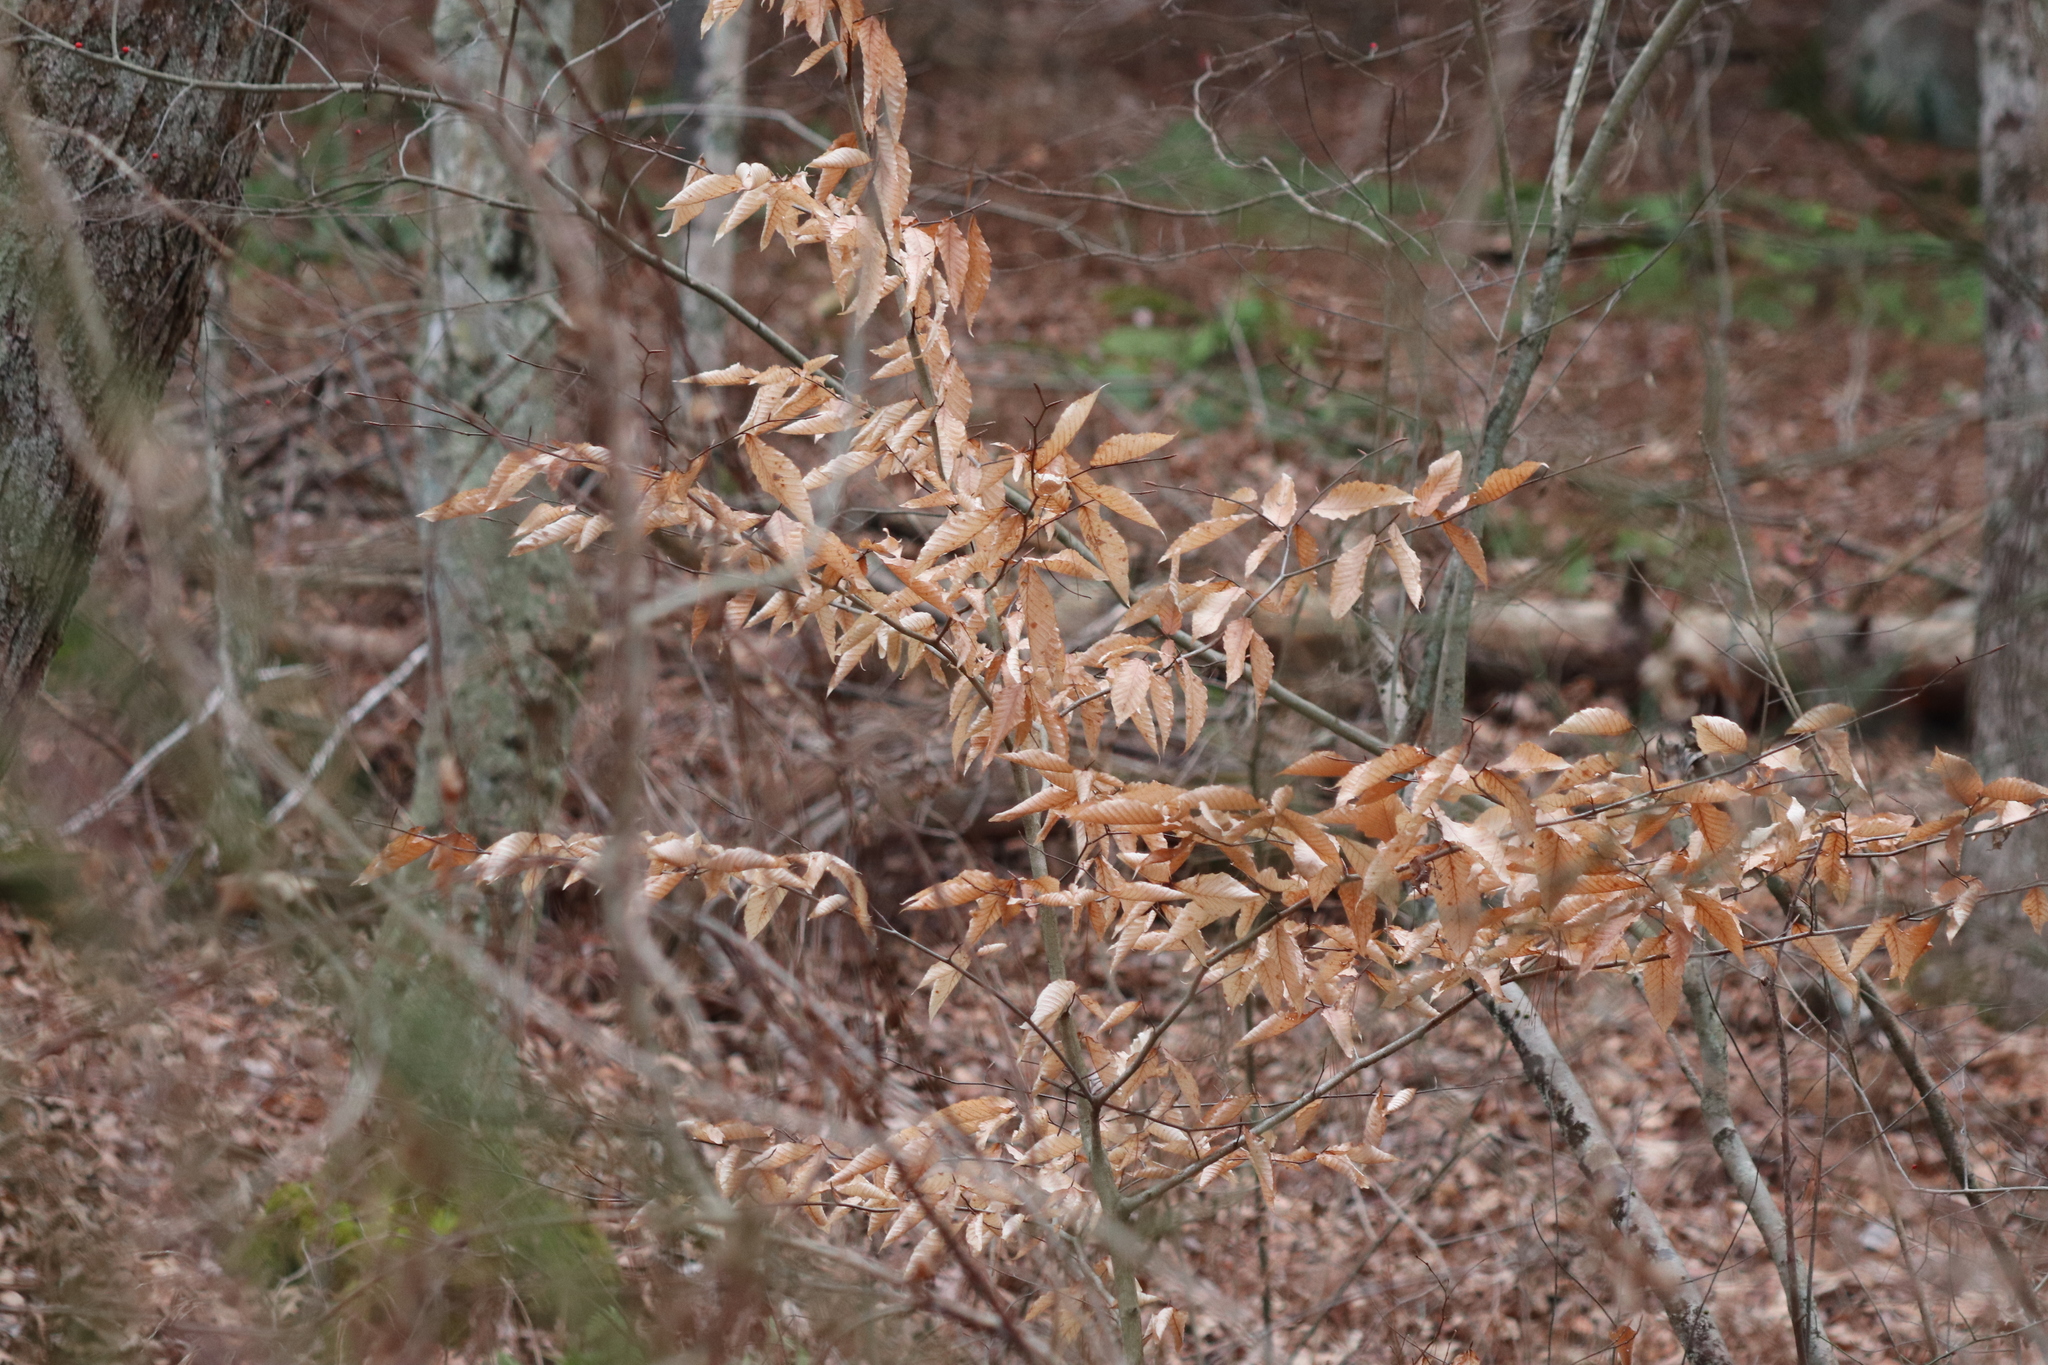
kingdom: Plantae
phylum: Tracheophyta
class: Magnoliopsida
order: Fagales
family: Fagaceae
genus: Fagus
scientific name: Fagus grandifolia
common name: American beech
